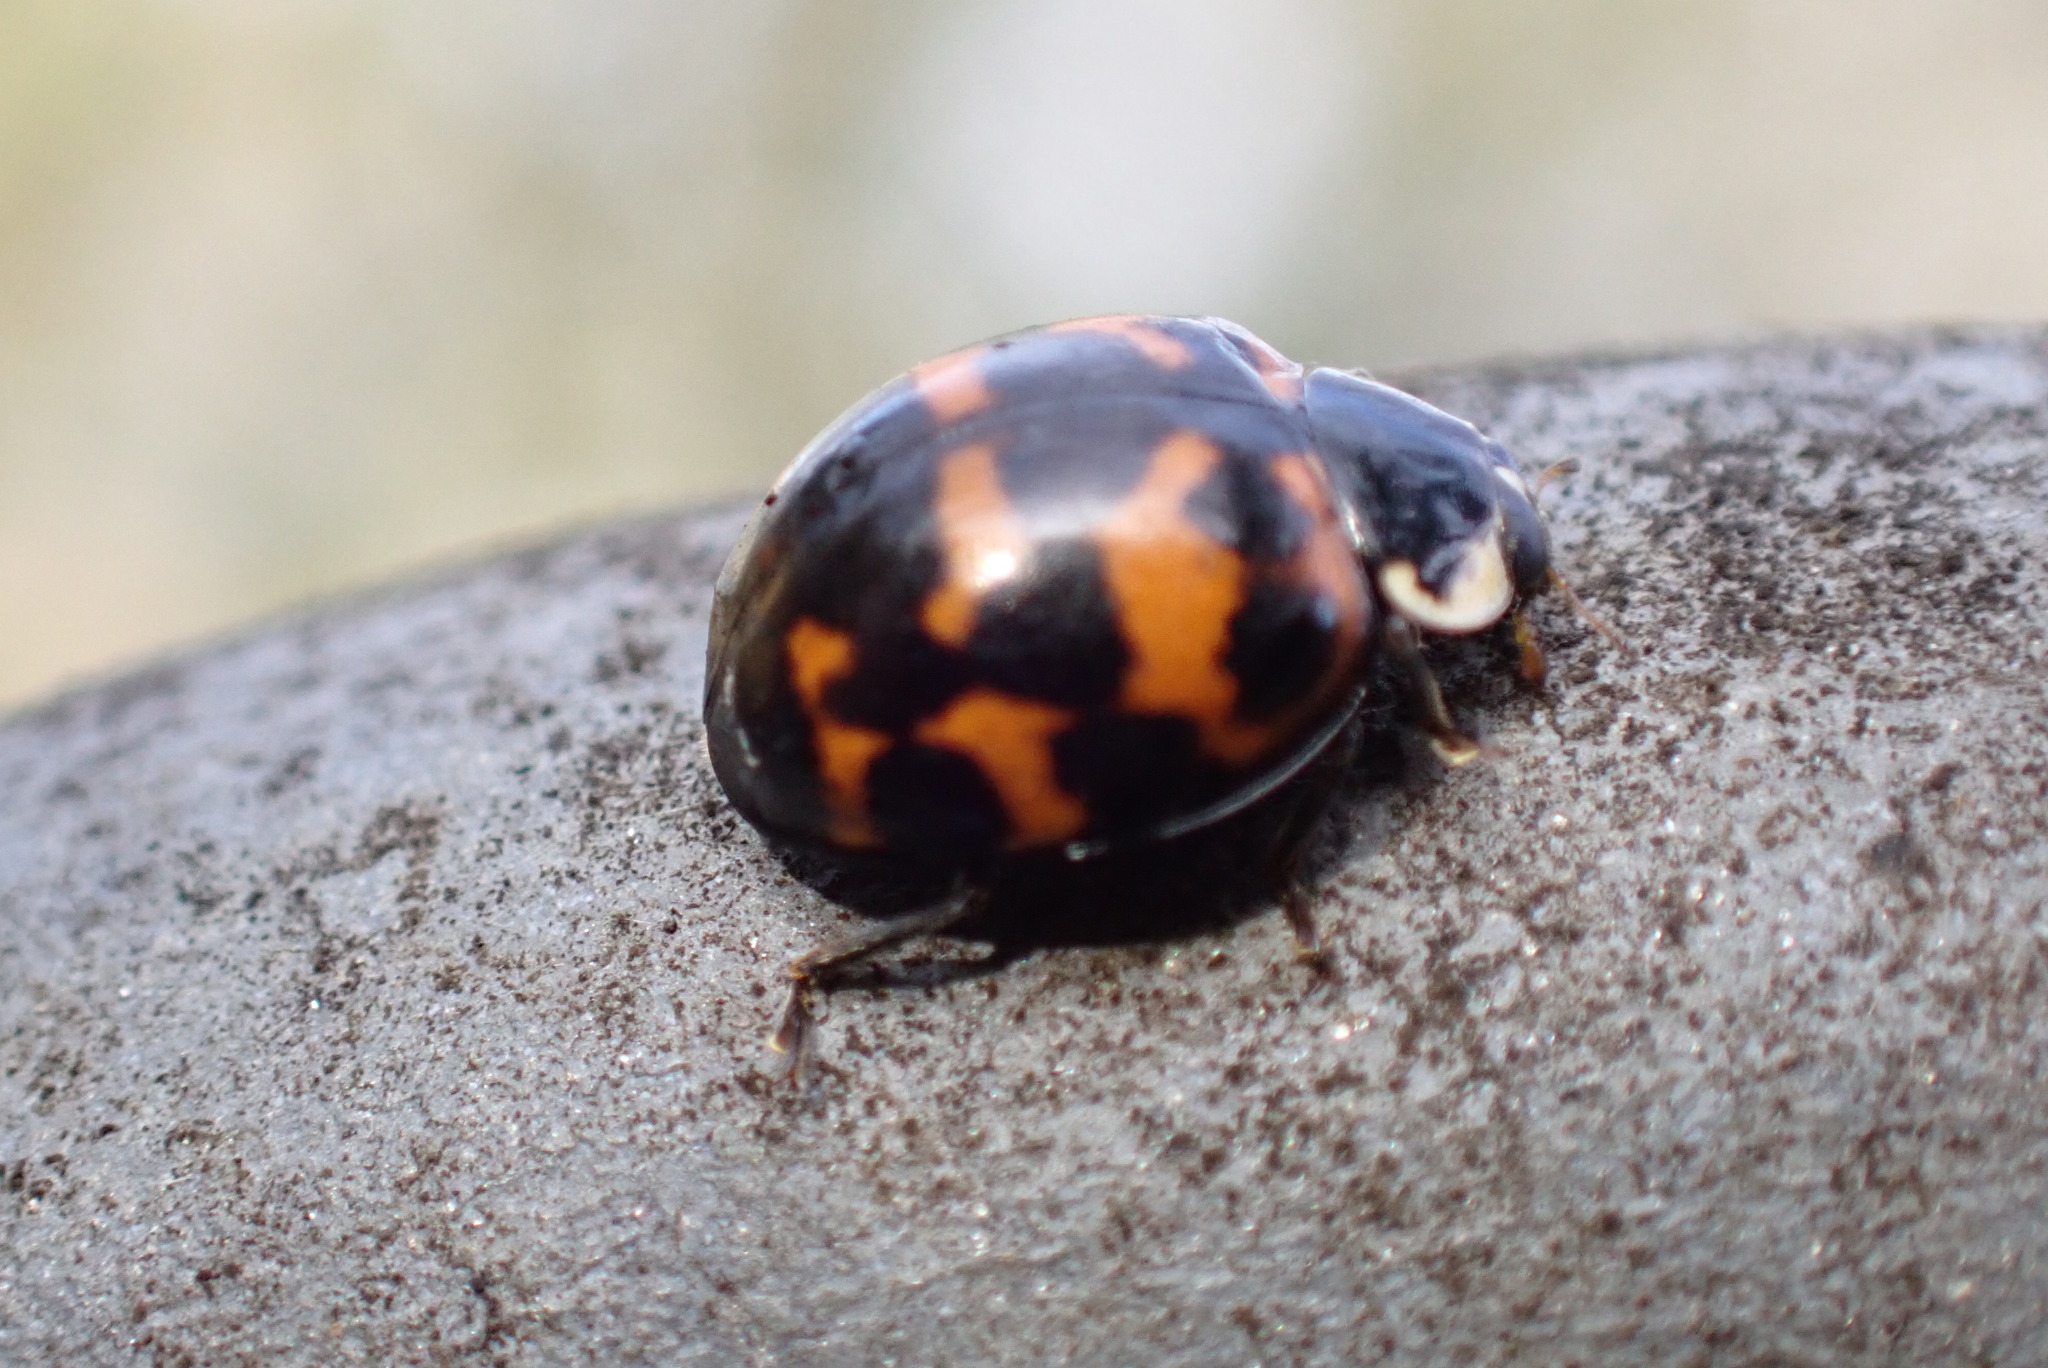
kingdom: Animalia
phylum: Arthropoda
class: Insecta
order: Coleoptera
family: Coccinellidae
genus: Harmonia
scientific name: Harmonia axyridis
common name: Harlequin ladybird
